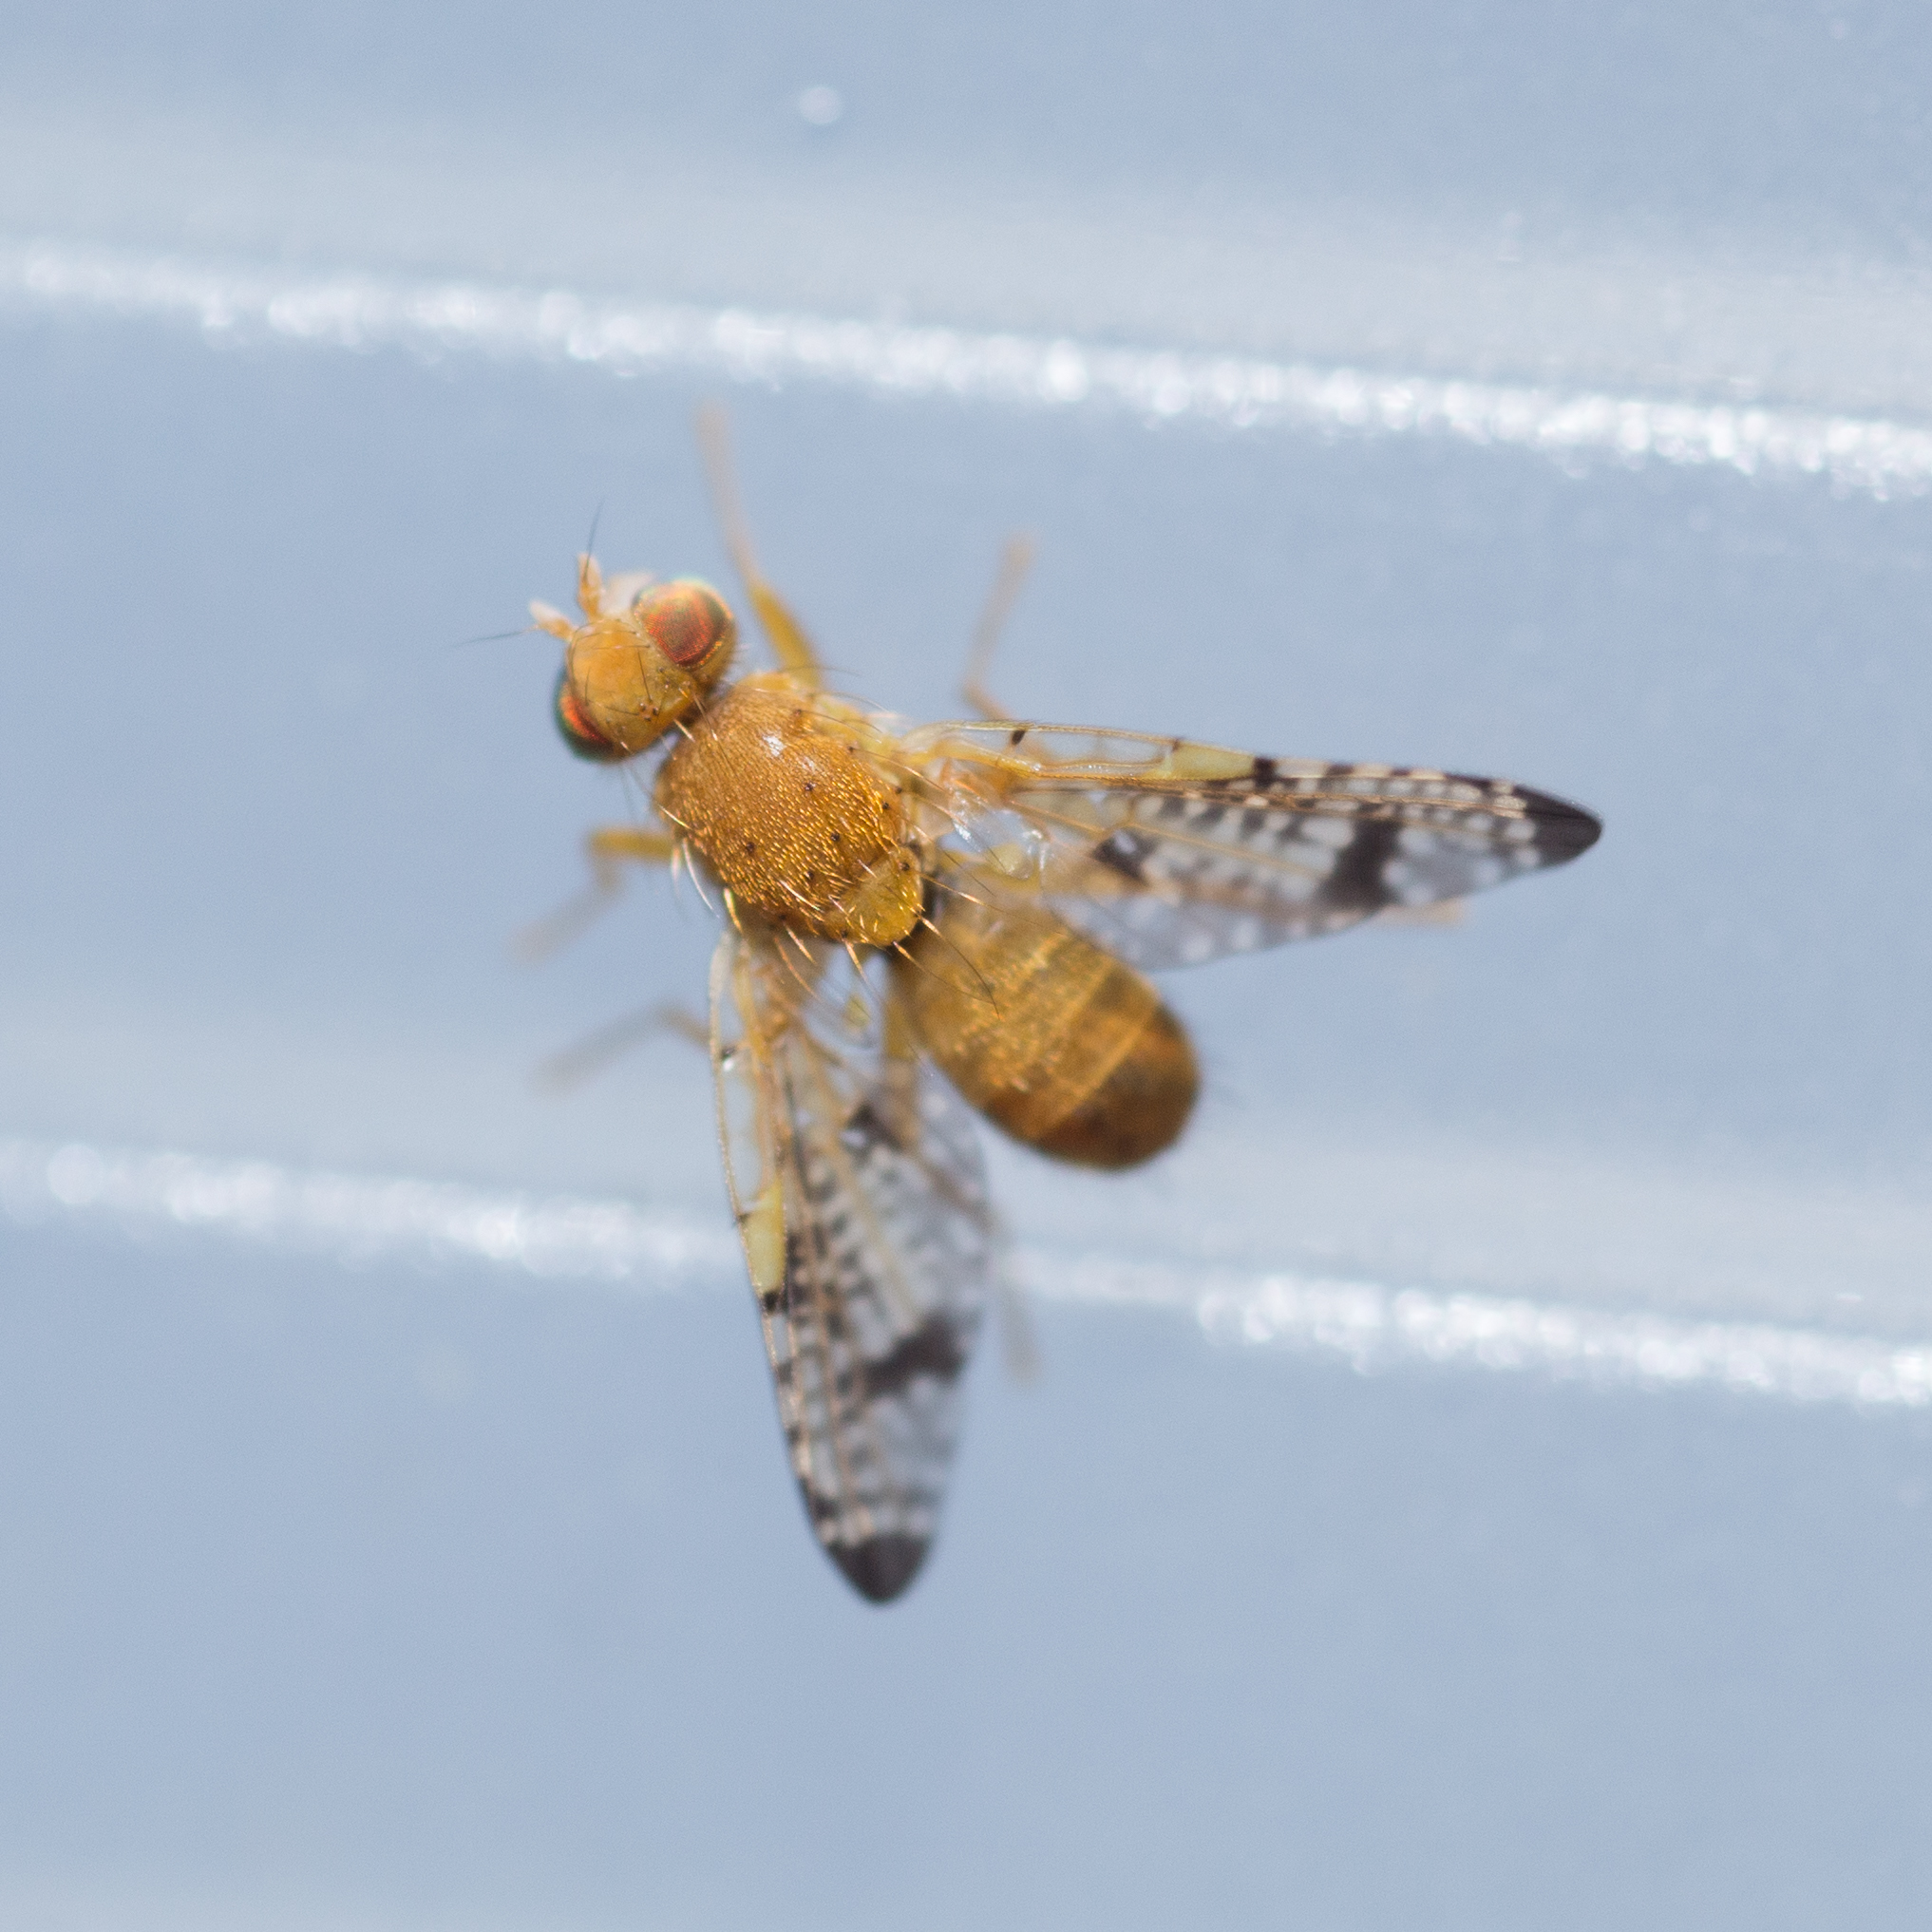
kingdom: Animalia
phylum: Arthropoda
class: Insecta
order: Diptera
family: Tephritidae
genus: Xyphosia
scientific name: Xyphosia miliaria
